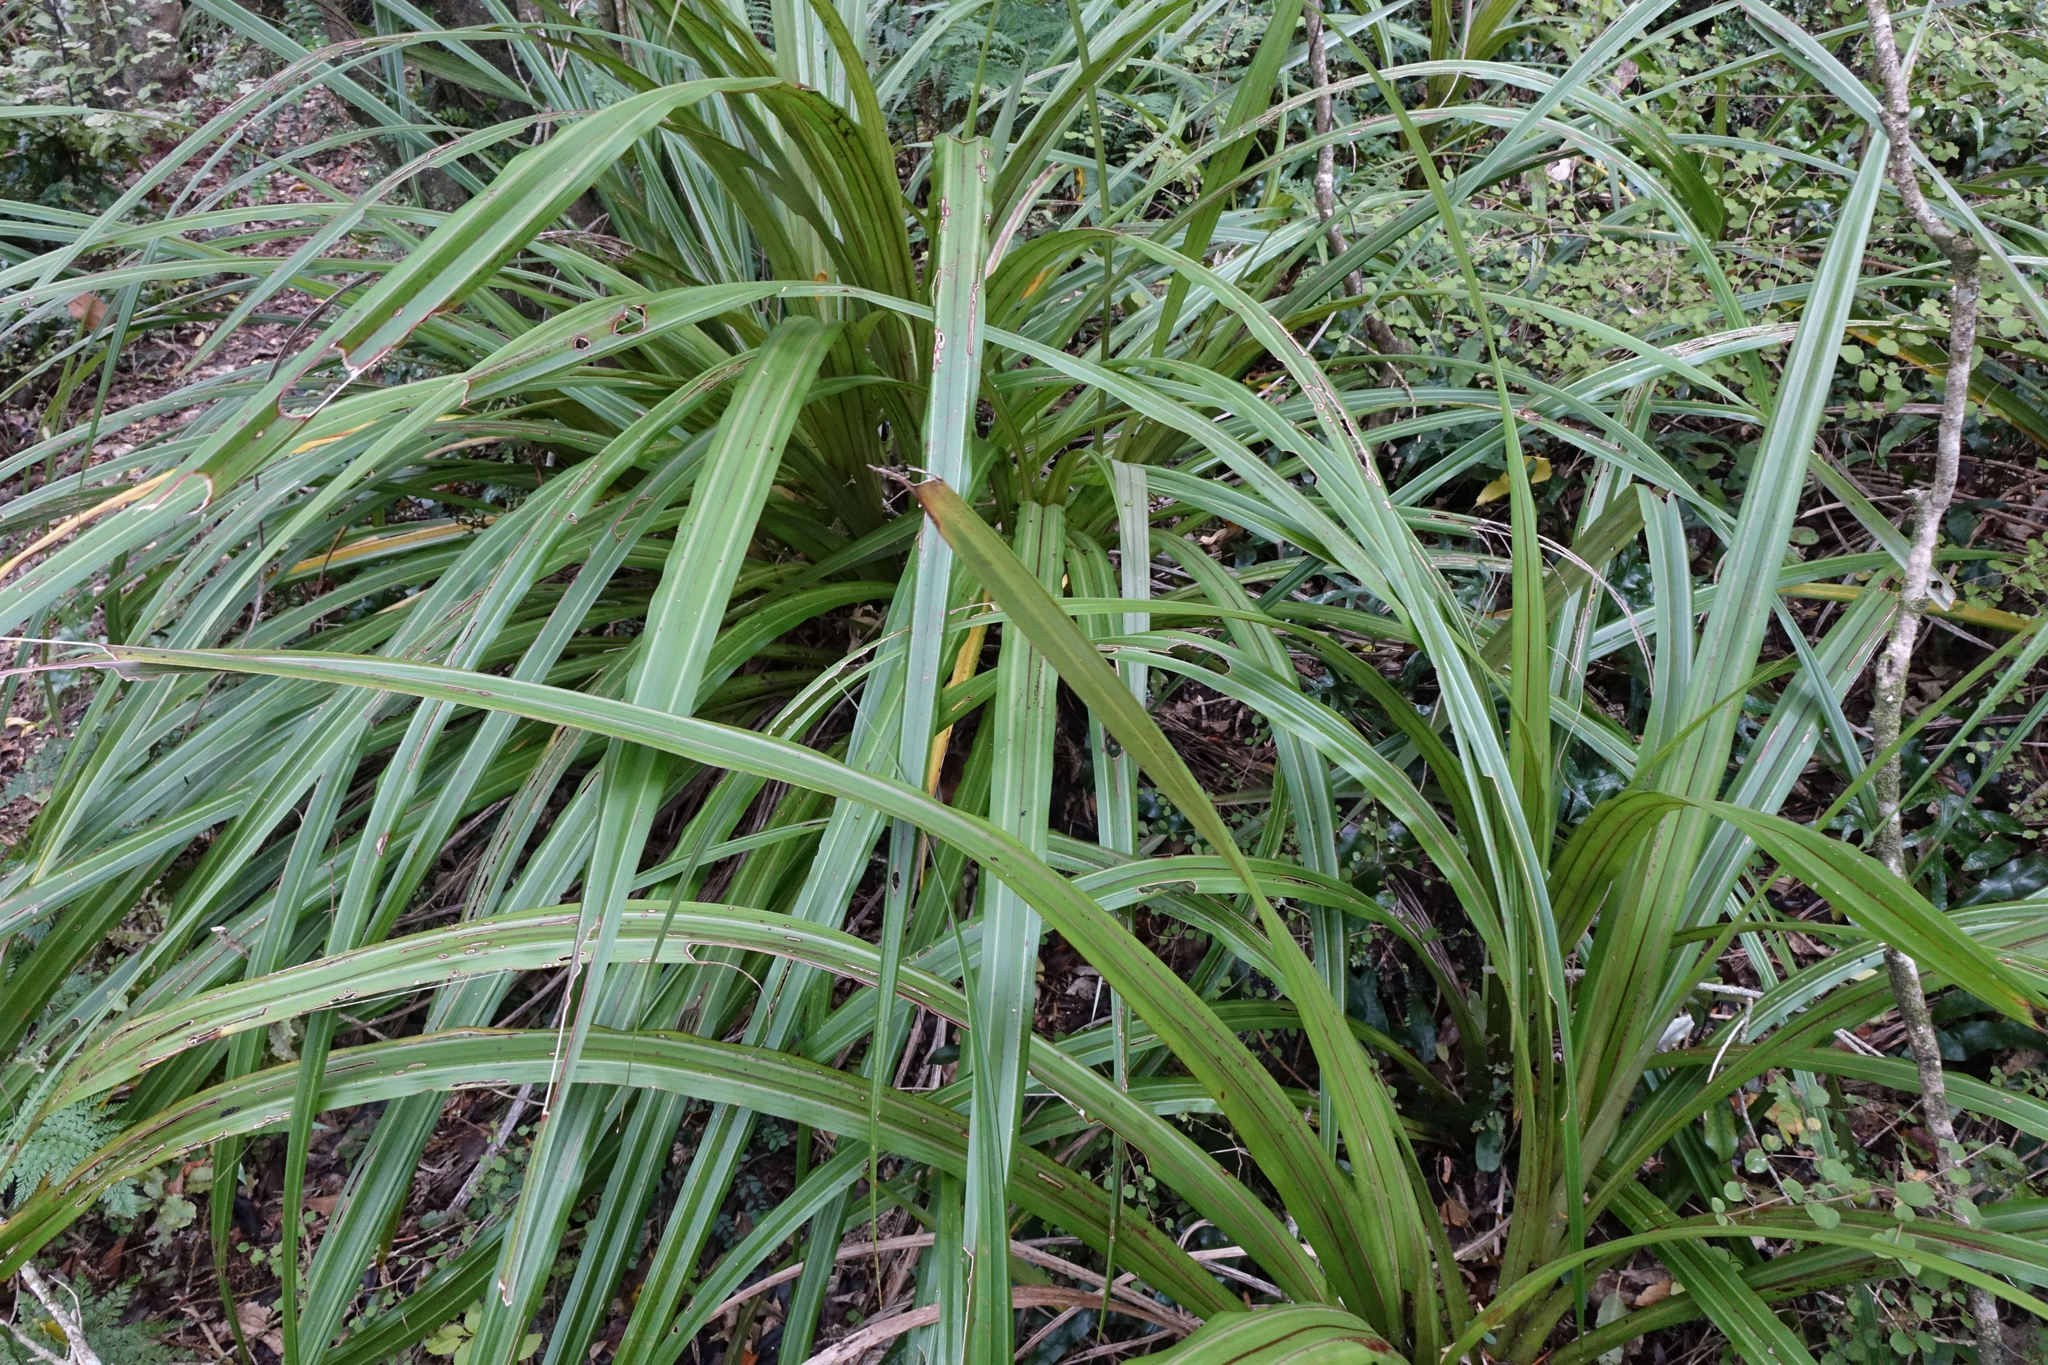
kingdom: Plantae
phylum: Tracheophyta
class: Liliopsida
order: Asparagales
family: Asteliaceae
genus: Astelia
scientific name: Astelia fragrans
